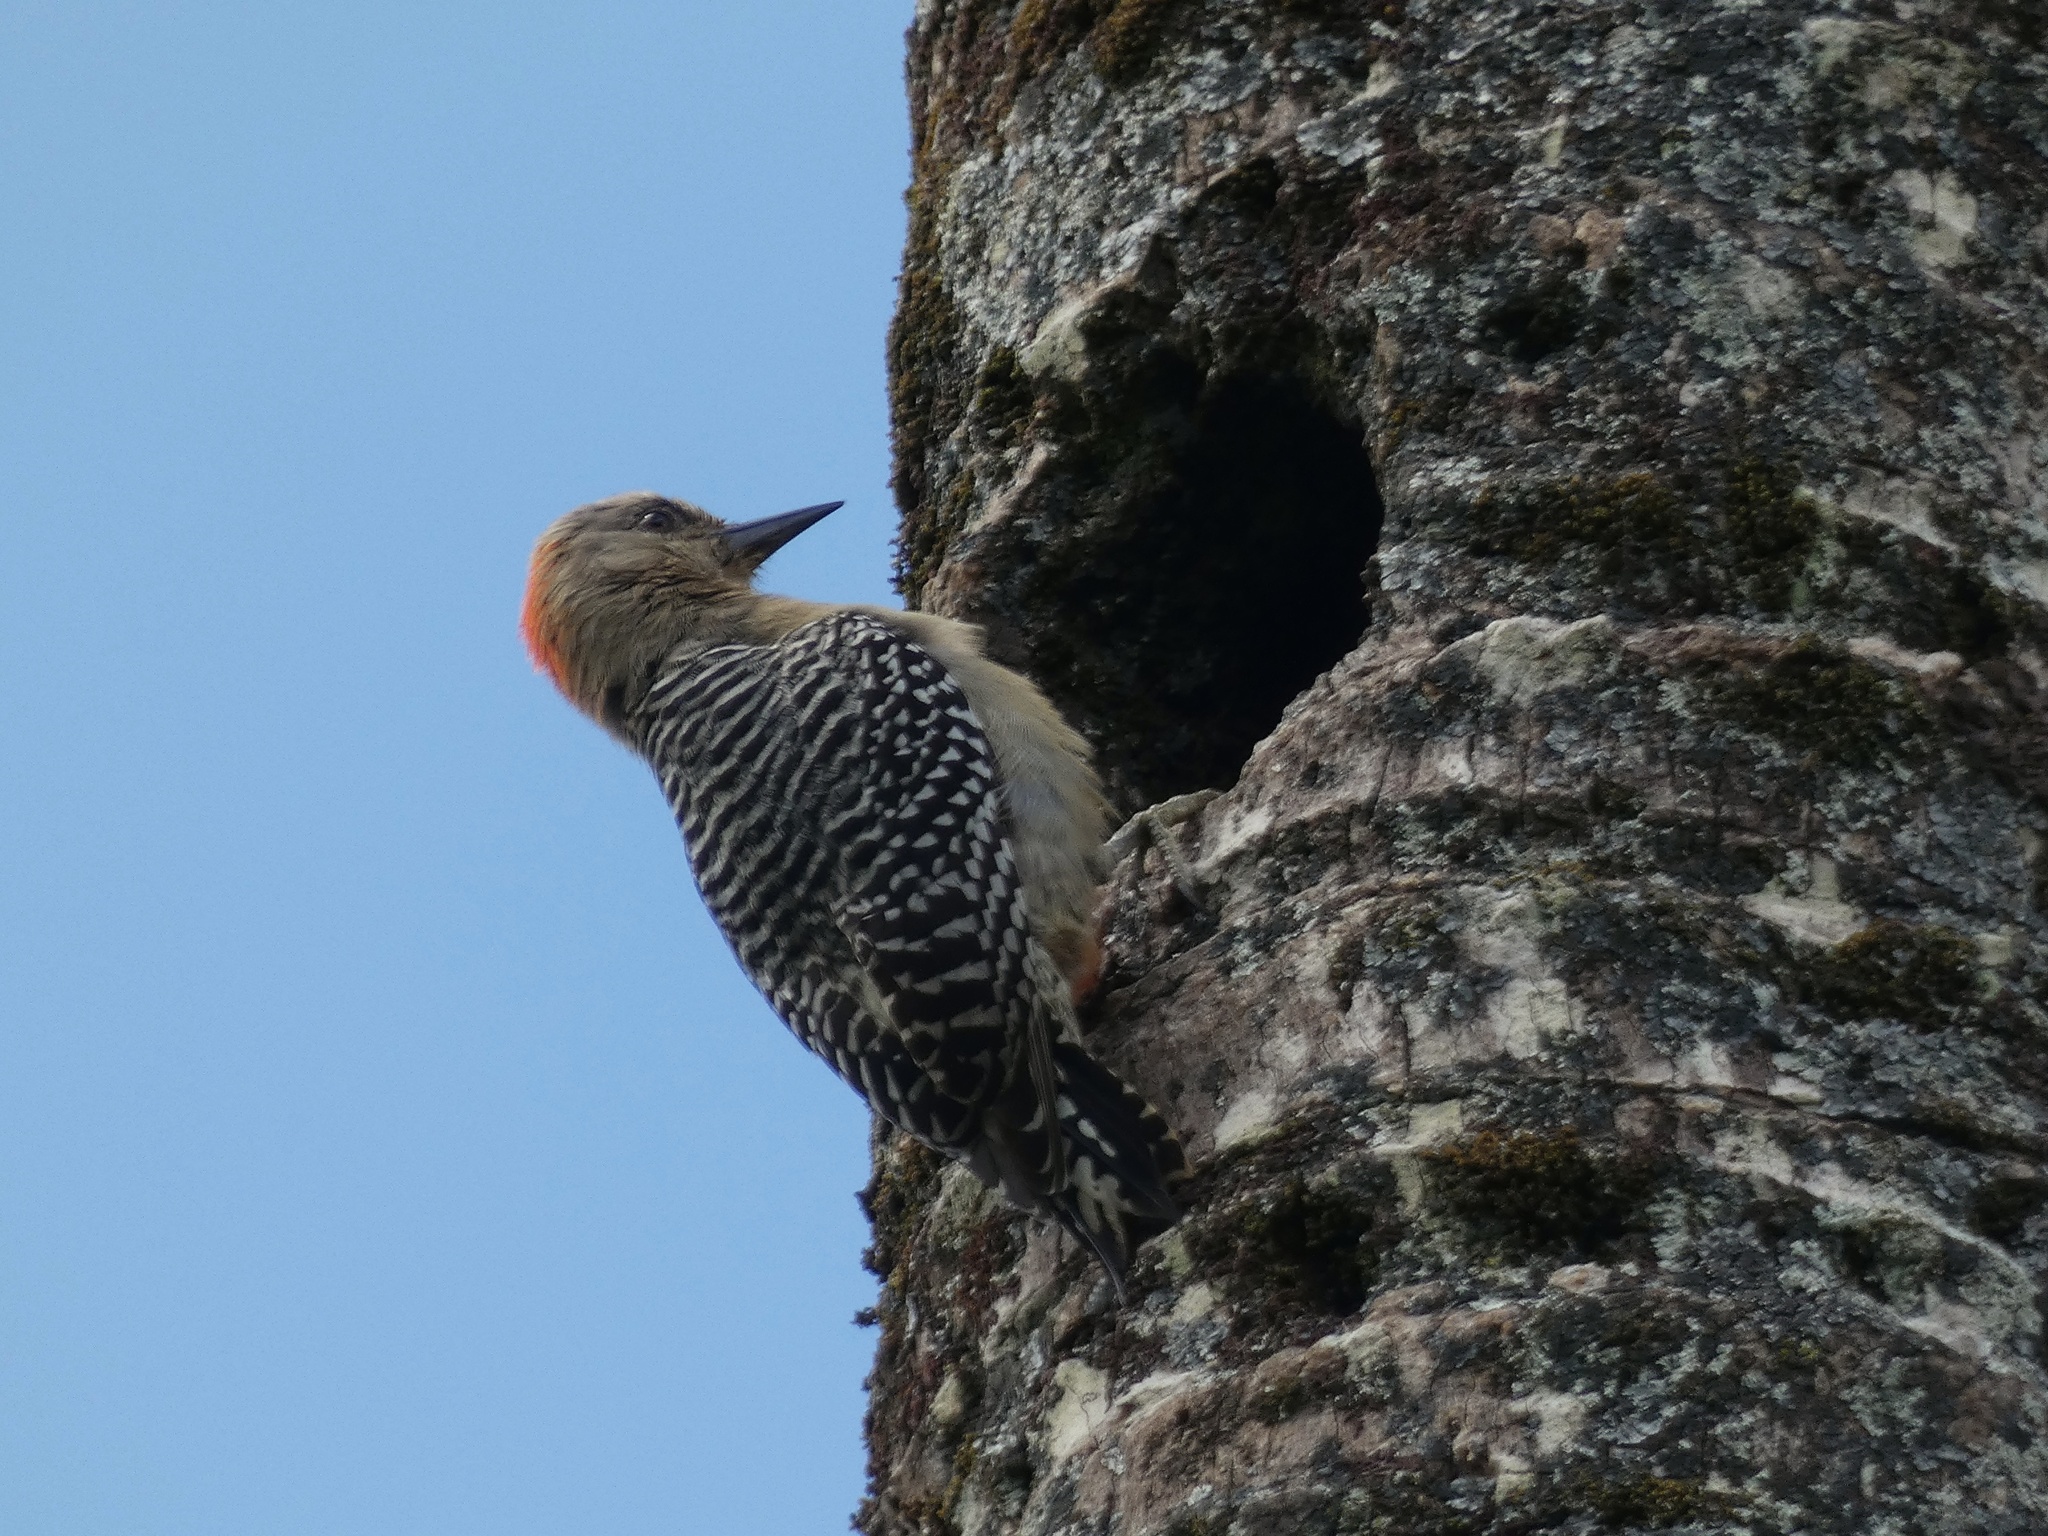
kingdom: Animalia
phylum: Chordata
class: Aves
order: Piciformes
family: Picidae
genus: Melanerpes
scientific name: Melanerpes rubricapillus
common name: Red-crowned woodpecker
